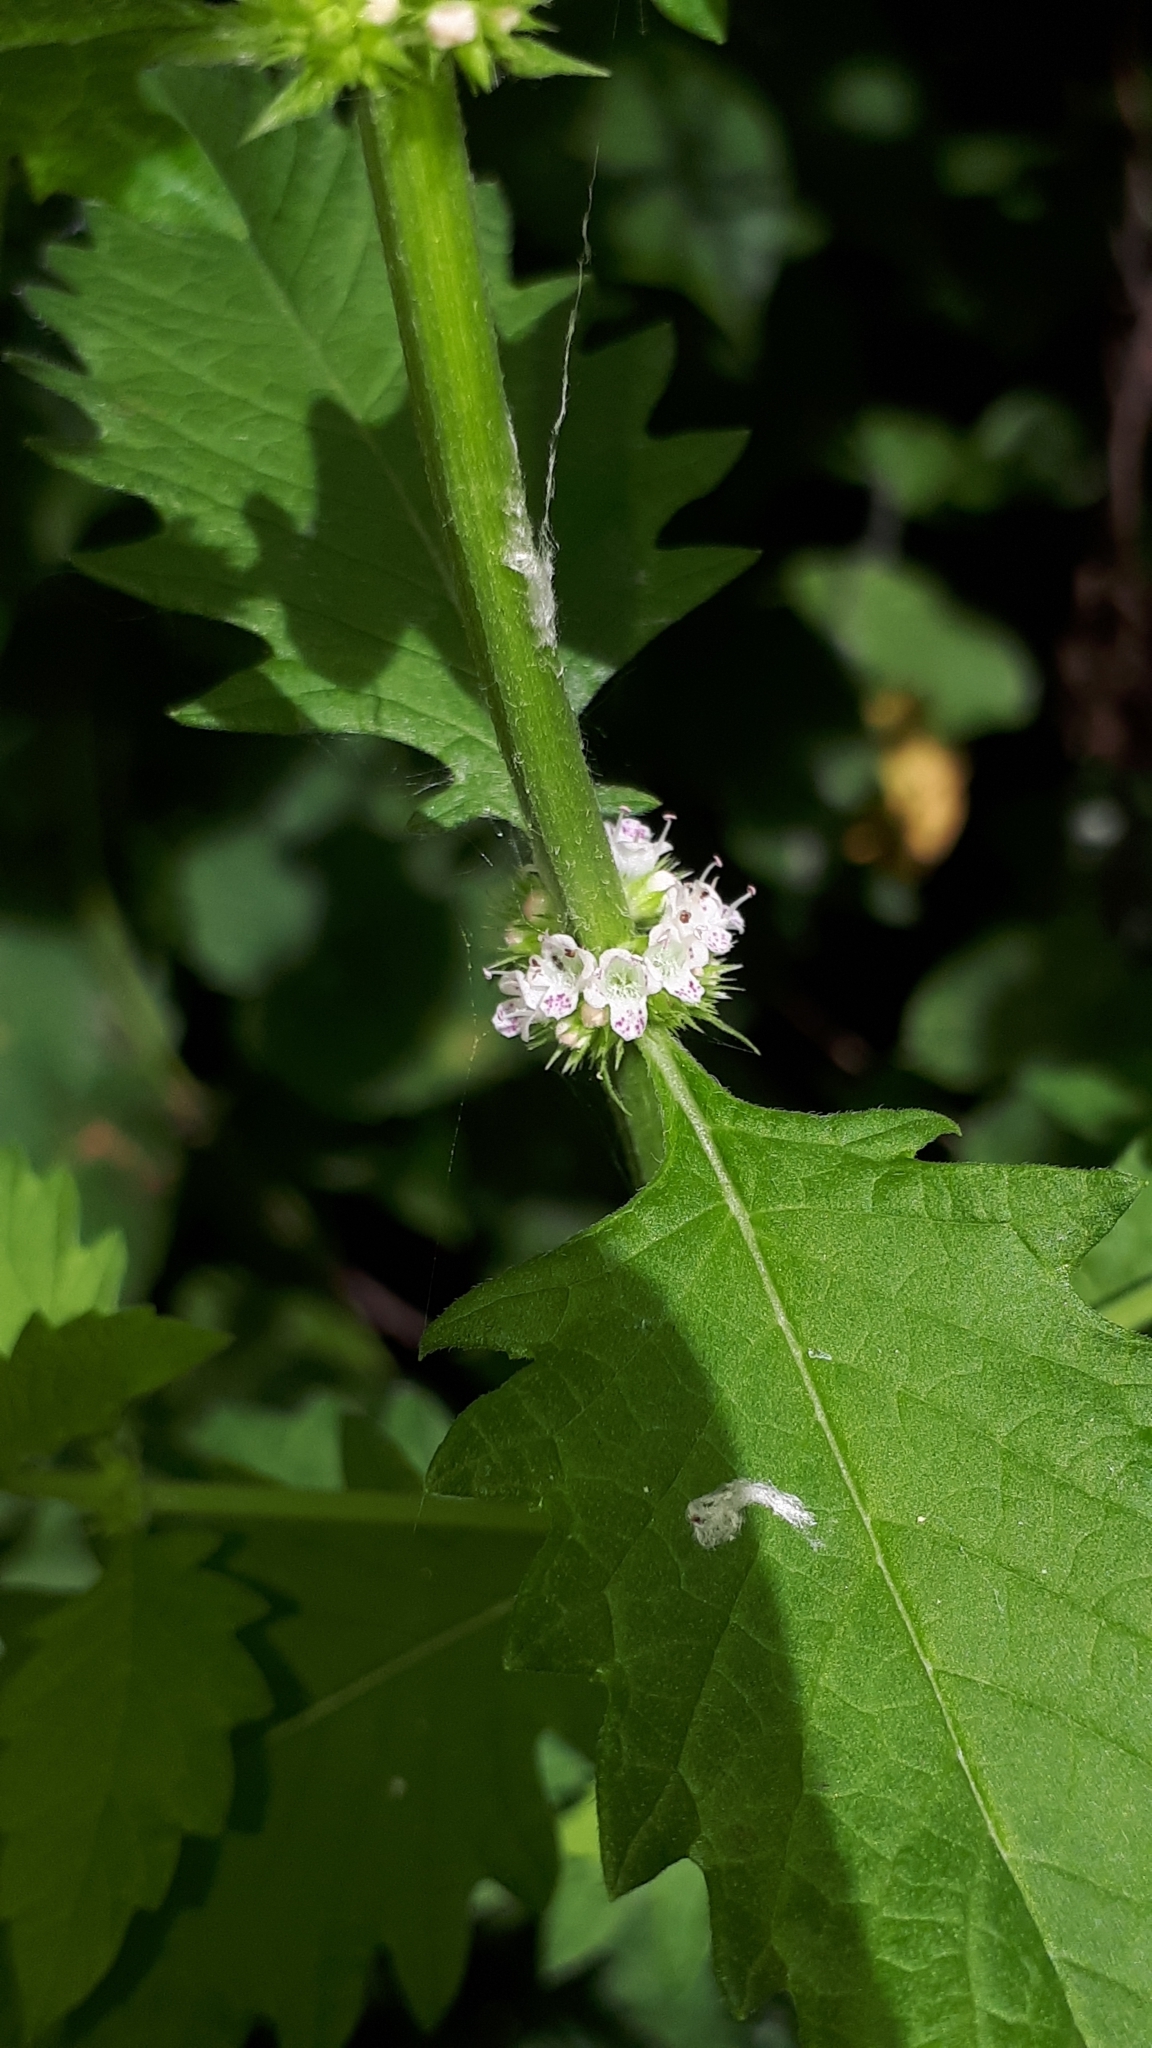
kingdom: Plantae
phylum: Tracheophyta
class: Magnoliopsida
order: Lamiales
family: Lamiaceae
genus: Lycopus
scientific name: Lycopus europaeus
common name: European bugleweed
